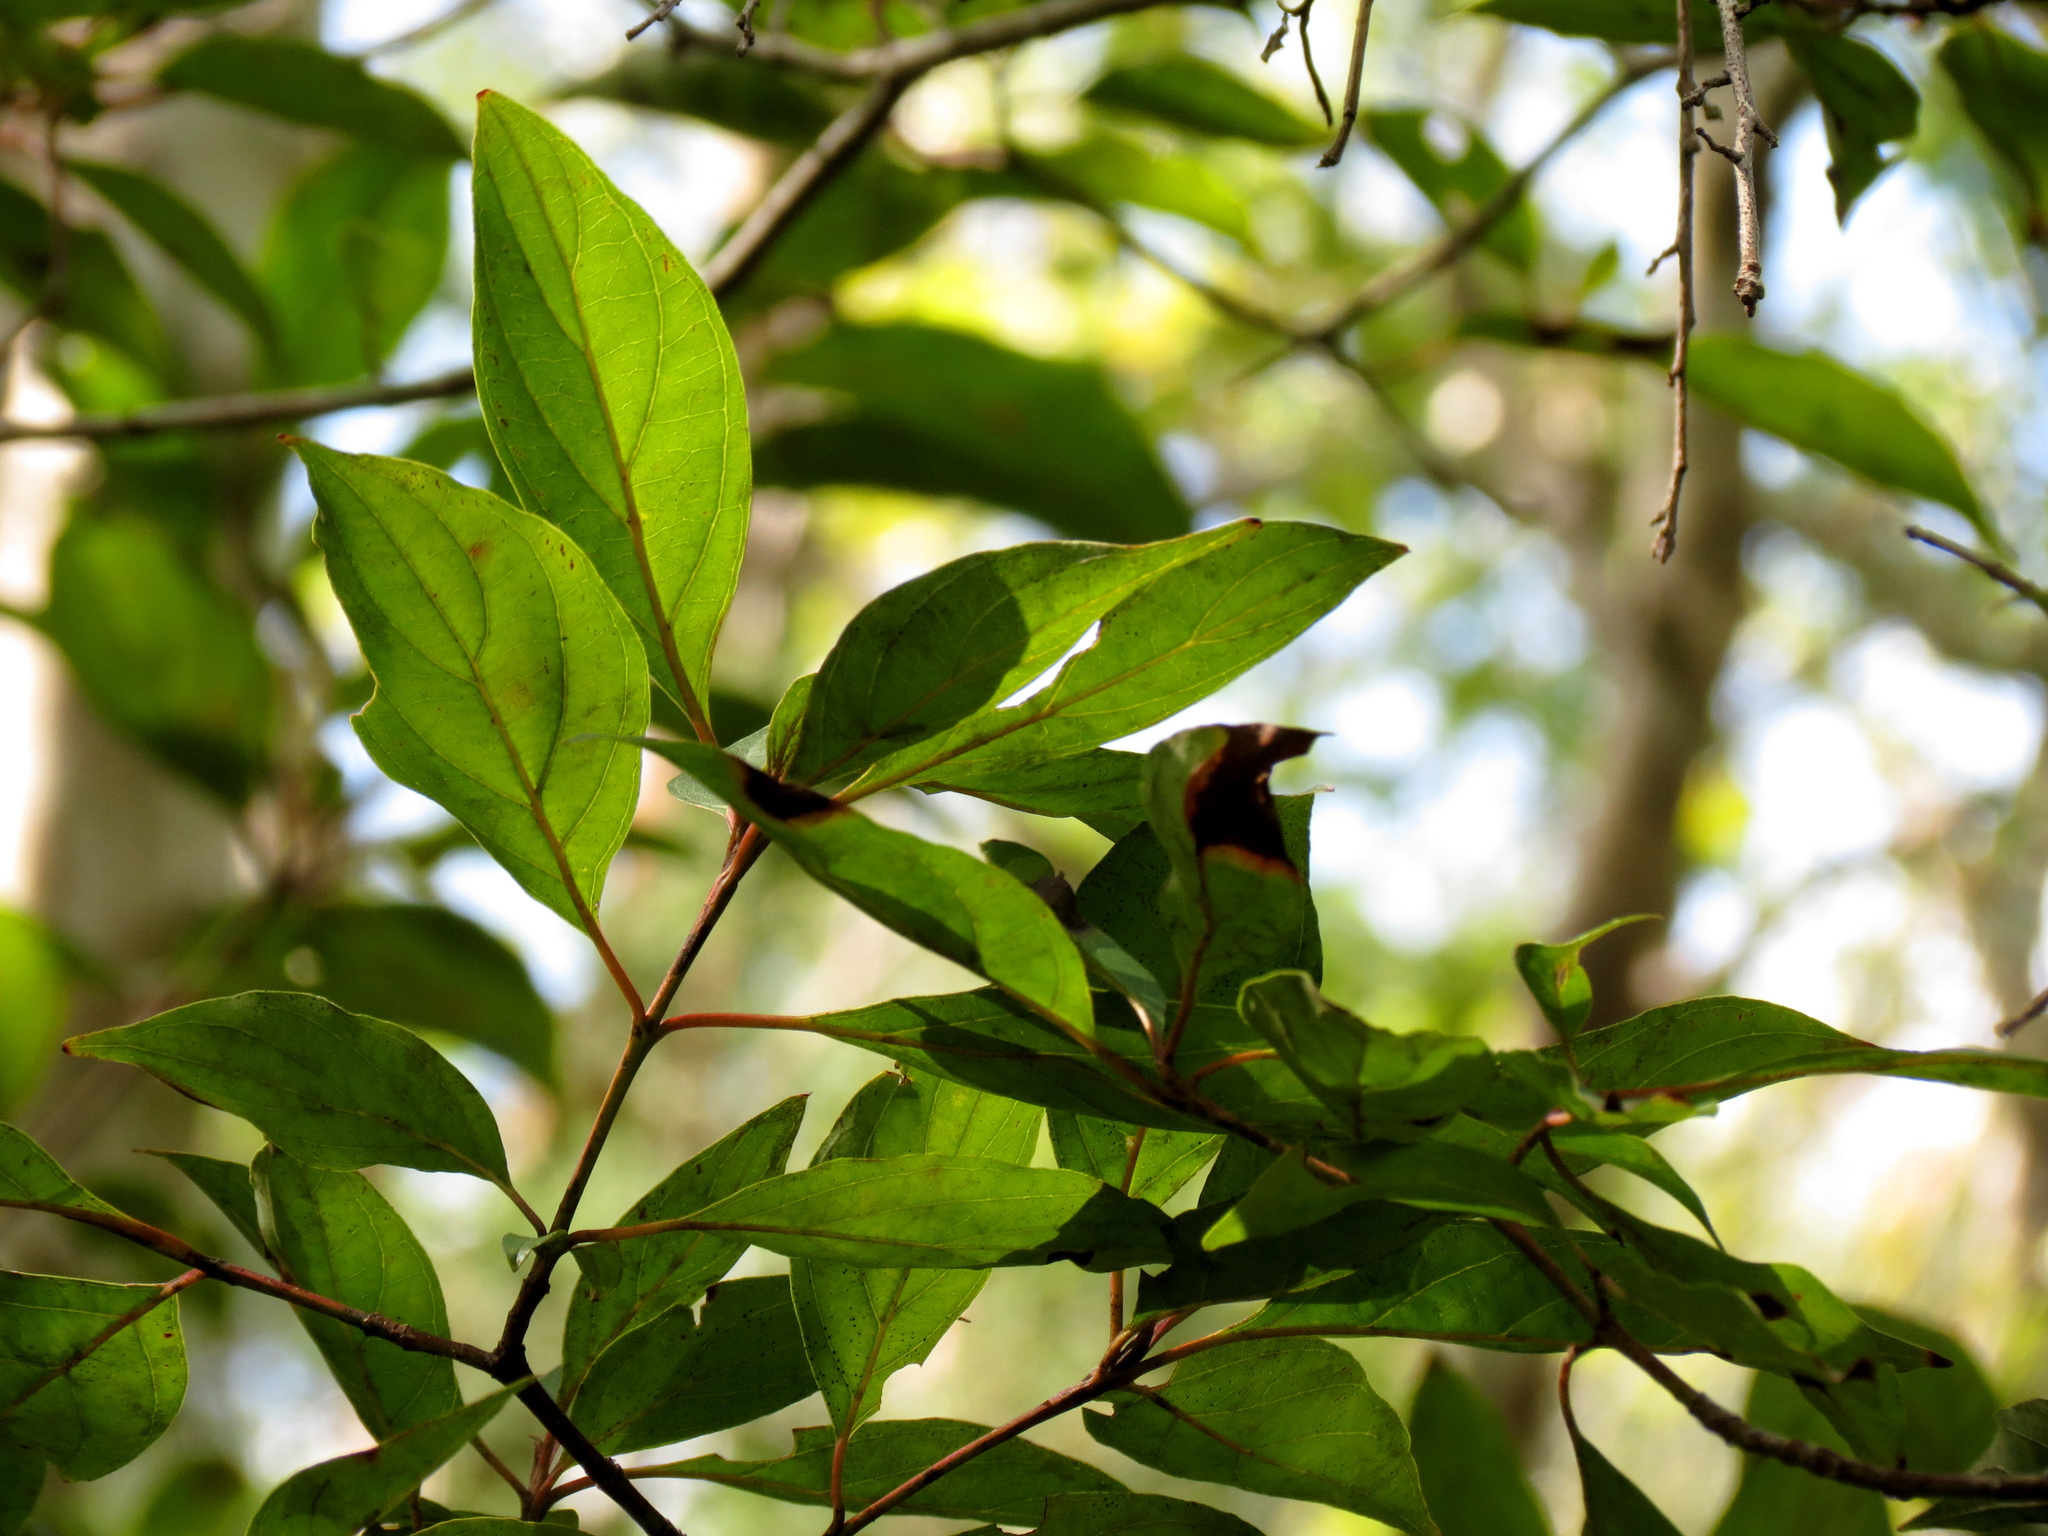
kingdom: Plantae
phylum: Tracheophyta
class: Magnoliopsida
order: Cornales
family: Cornaceae
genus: Cornus
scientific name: Cornus foemina
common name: Swamp dogwood
